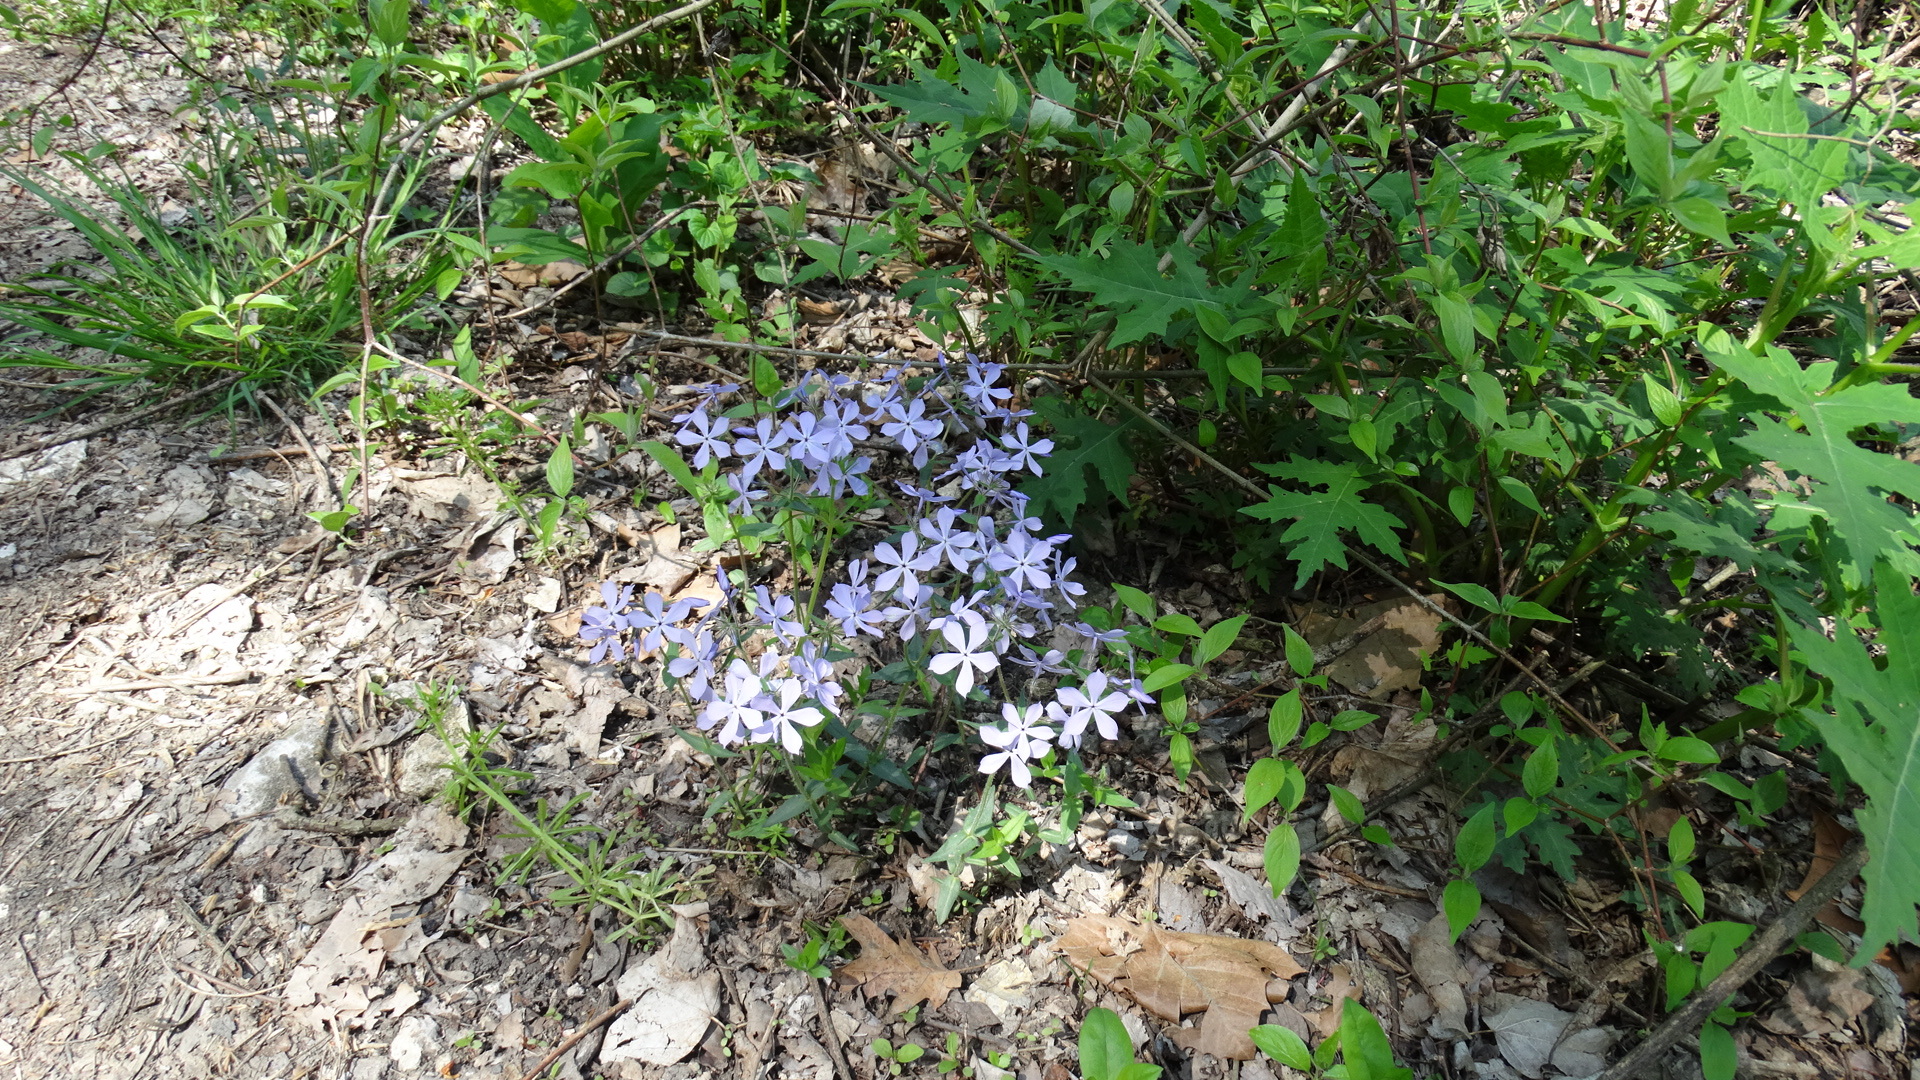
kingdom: Plantae
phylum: Tracheophyta
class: Magnoliopsida
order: Ericales
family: Polemoniaceae
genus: Phlox
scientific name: Phlox divaricata
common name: Blue phlox
